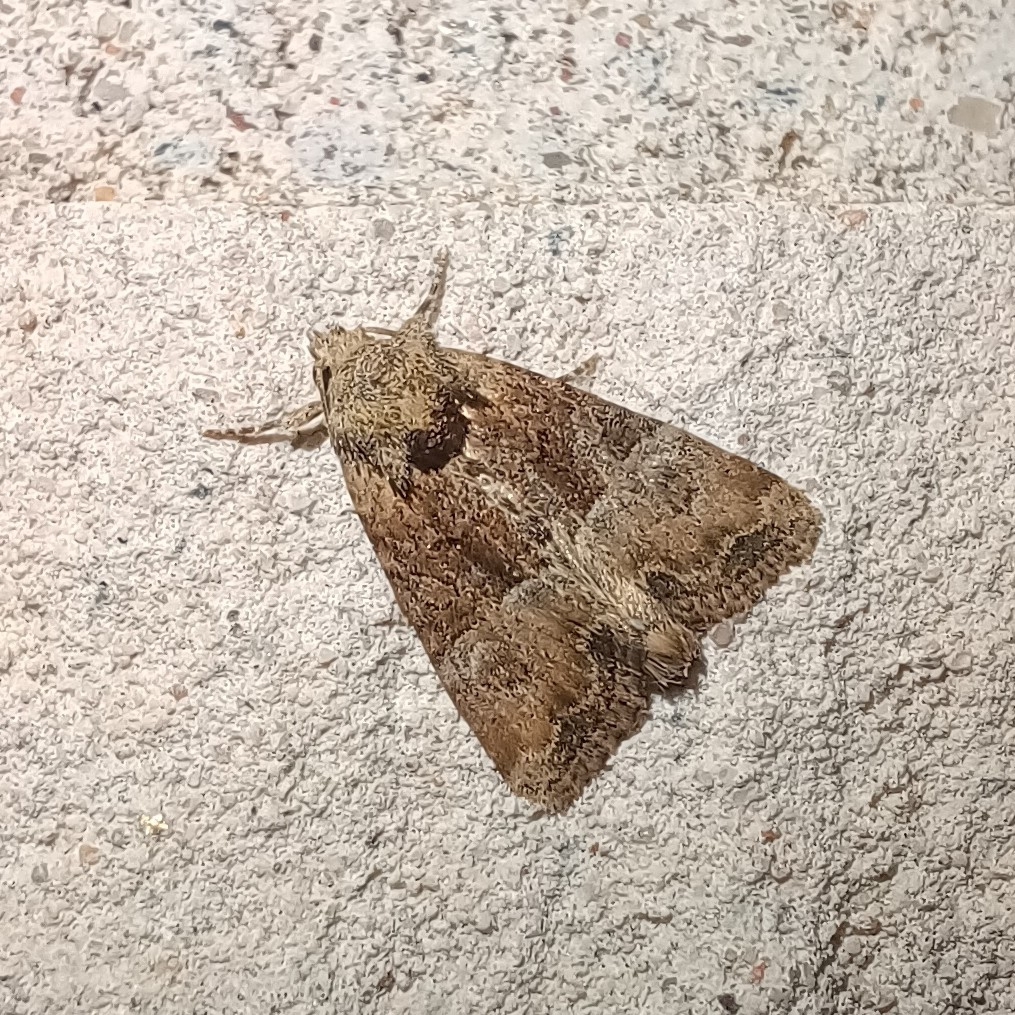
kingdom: Animalia
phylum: Arthropoda
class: Insecta
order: Lepidoptera
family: Noctuidae
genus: Mesoligia
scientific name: Mesoligia furuncula
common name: Cloaked minor
